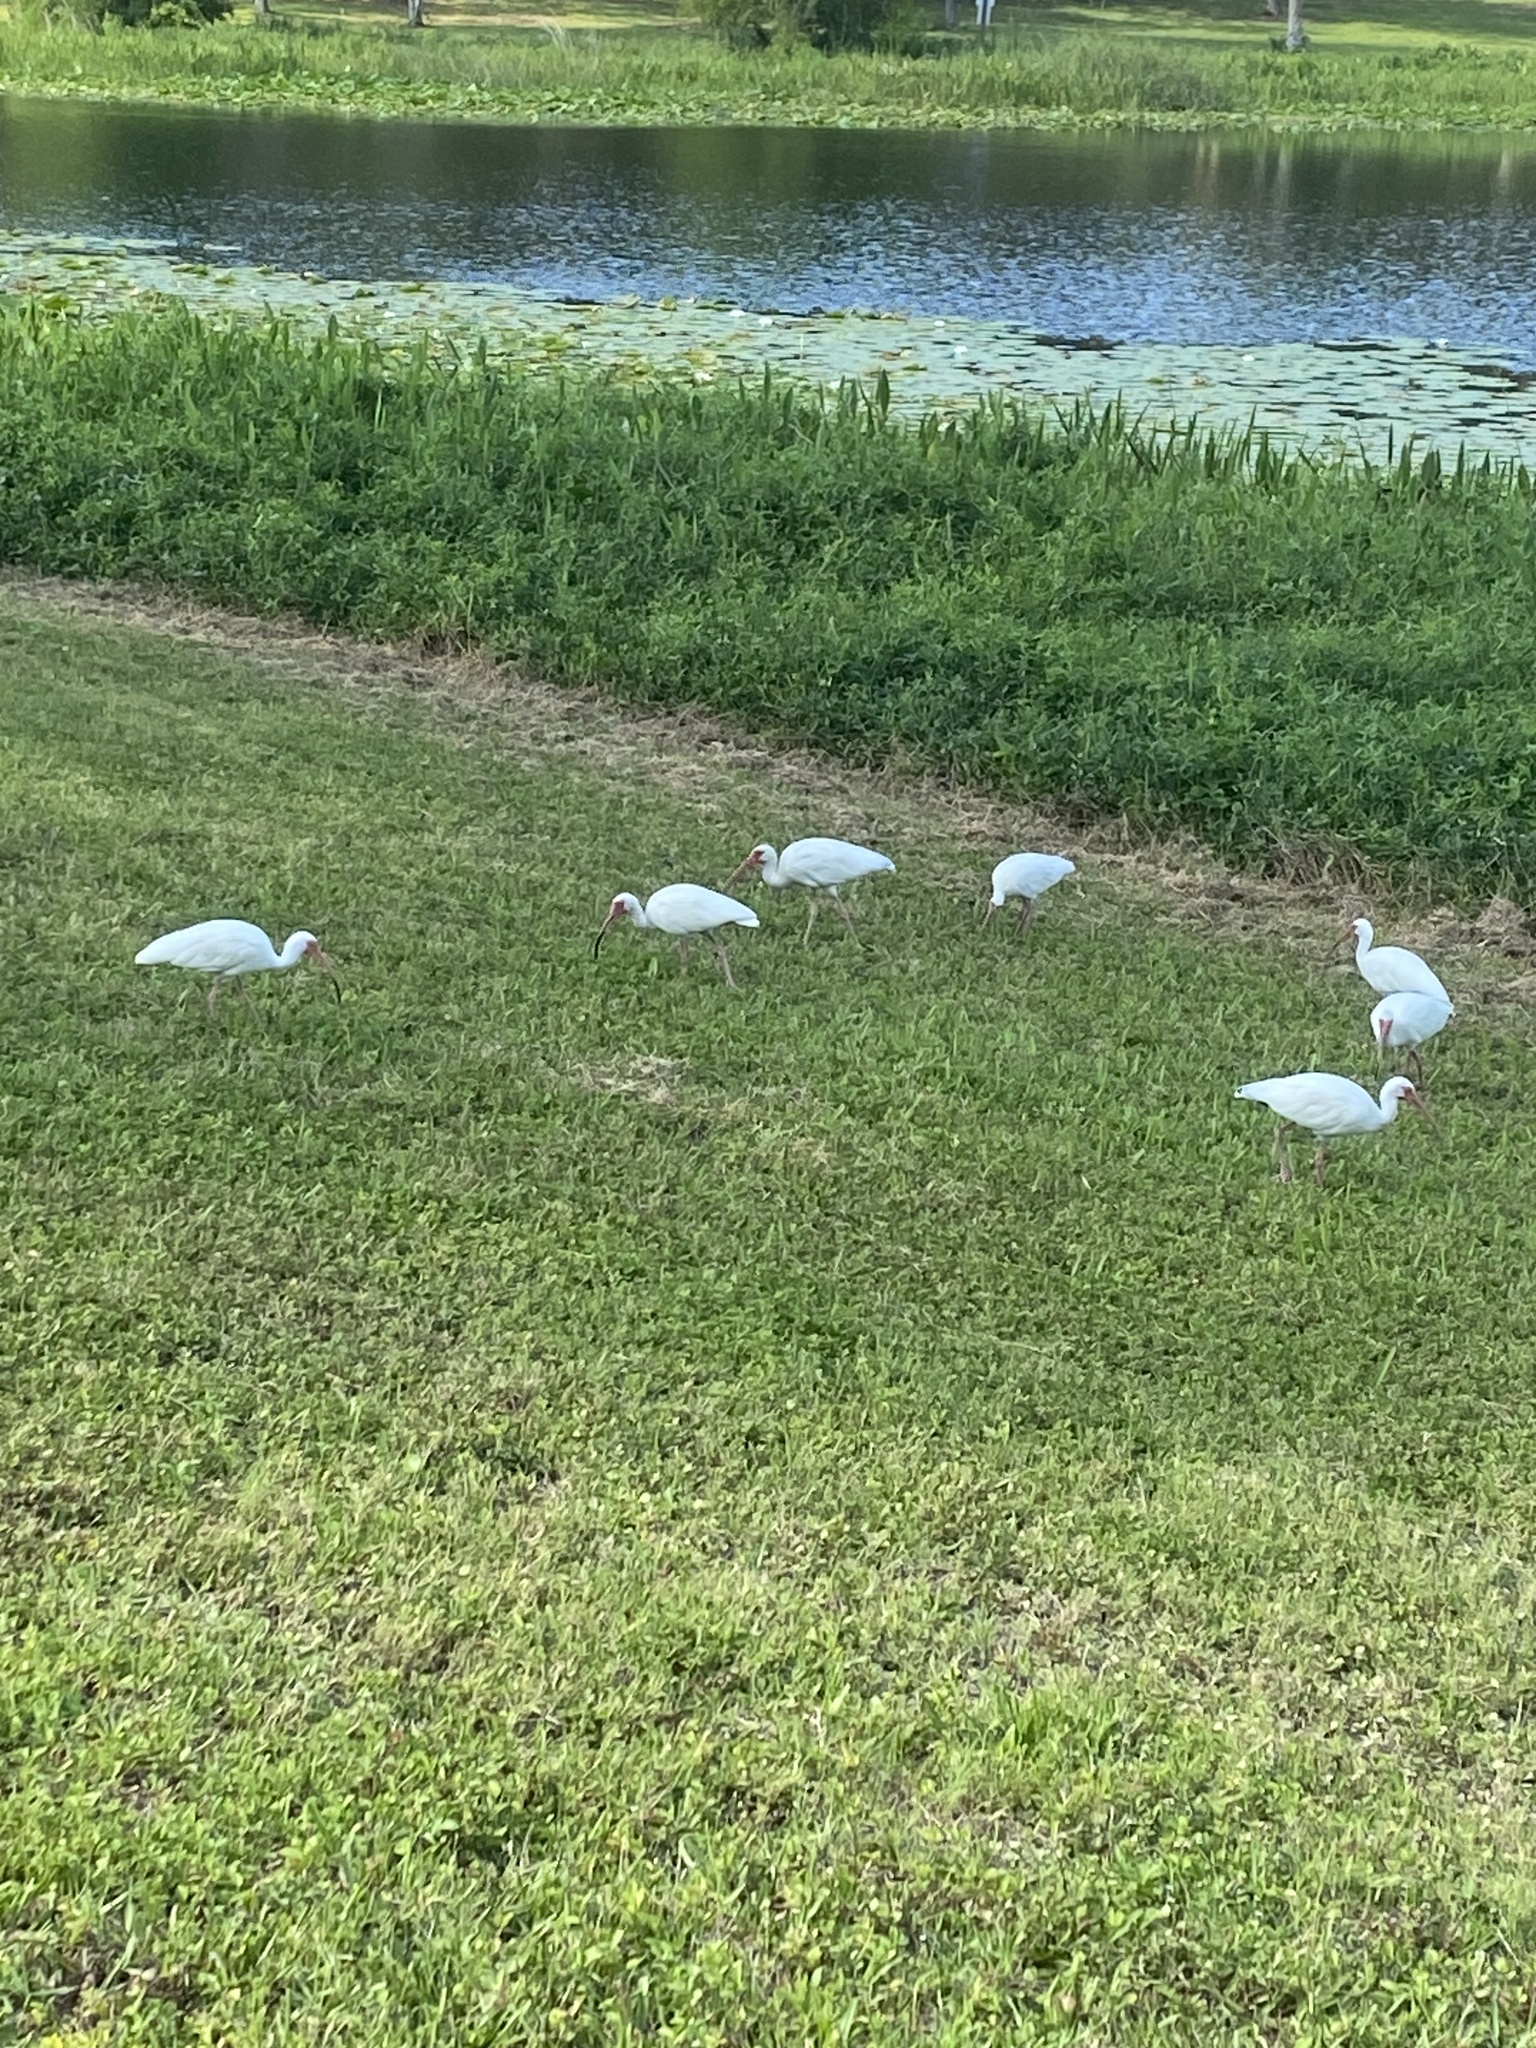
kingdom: Animalia
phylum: Chordata
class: Aves
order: Pelecaniformes
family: Threskiornithidae
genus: Eudocimus
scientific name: Eudocimus albus
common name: White ibis
